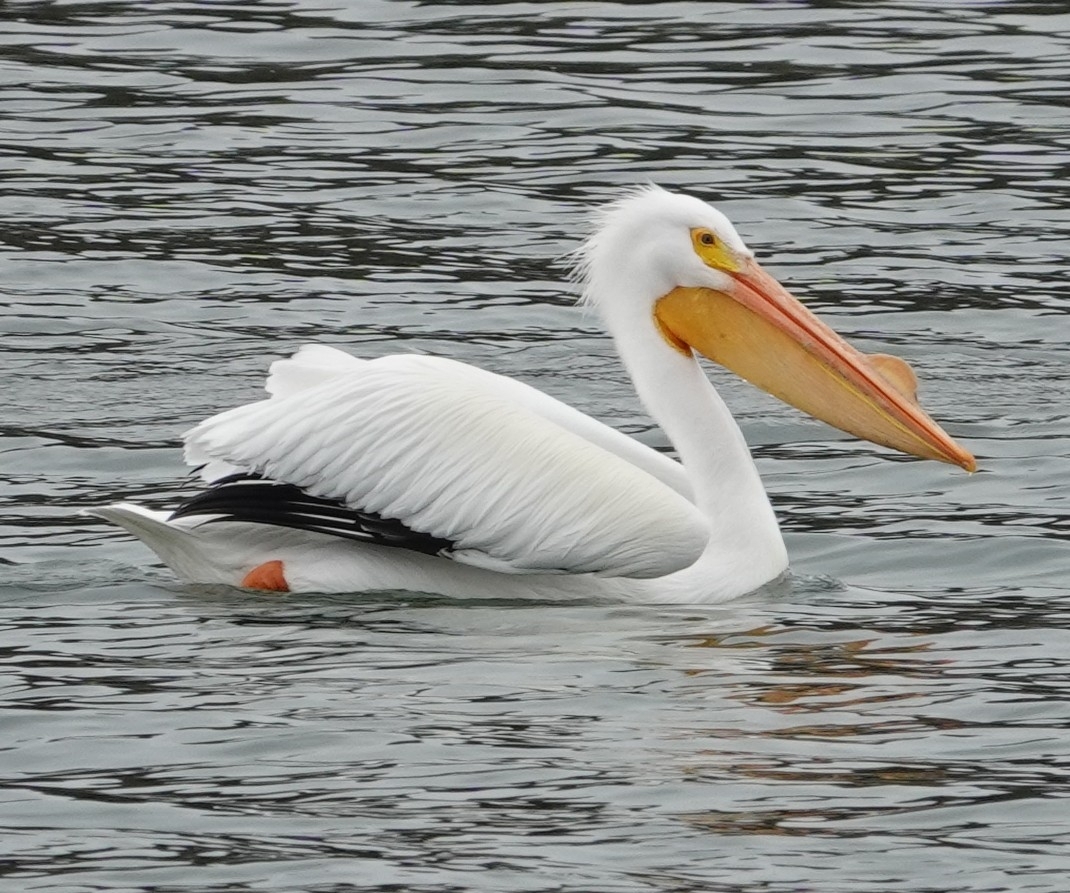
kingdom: Animalia
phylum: Chordata
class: Aves
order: Pelecaniformes
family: Pelecanidae
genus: Pelecanus
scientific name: Pelecanus erythrorhynchos
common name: American white pelican
